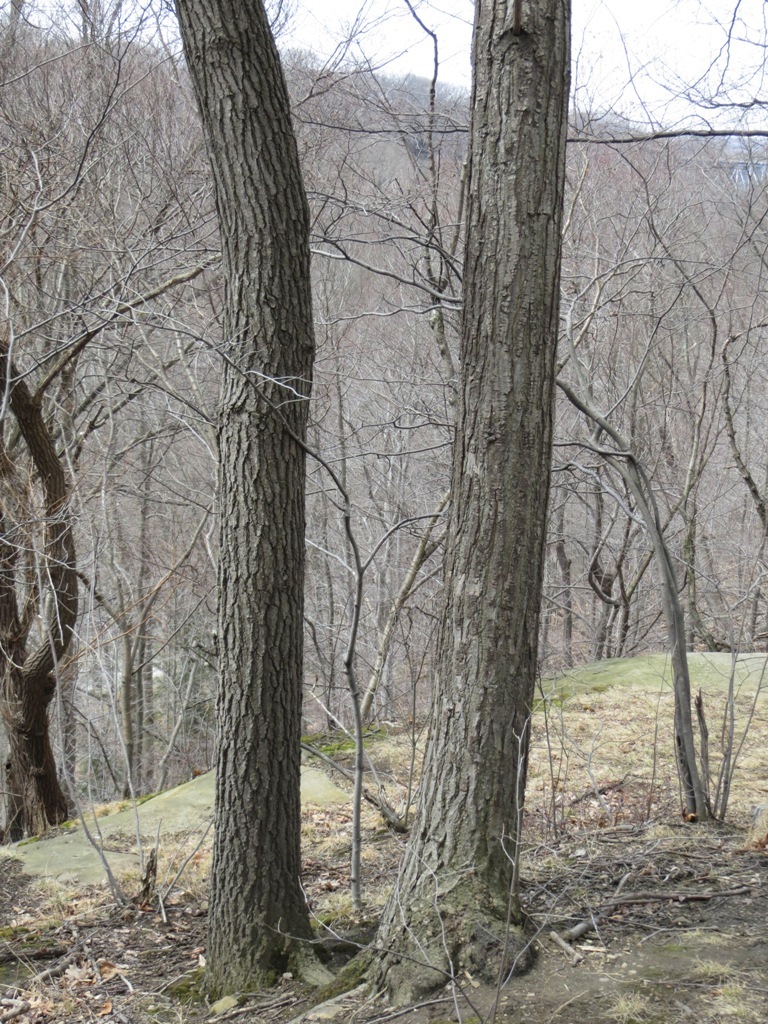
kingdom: Plantae
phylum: Tracheophyta
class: Magnoliopsida
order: Fagales
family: Fagaceae
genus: Castanea
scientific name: Castanea dentata
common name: American chestnut
